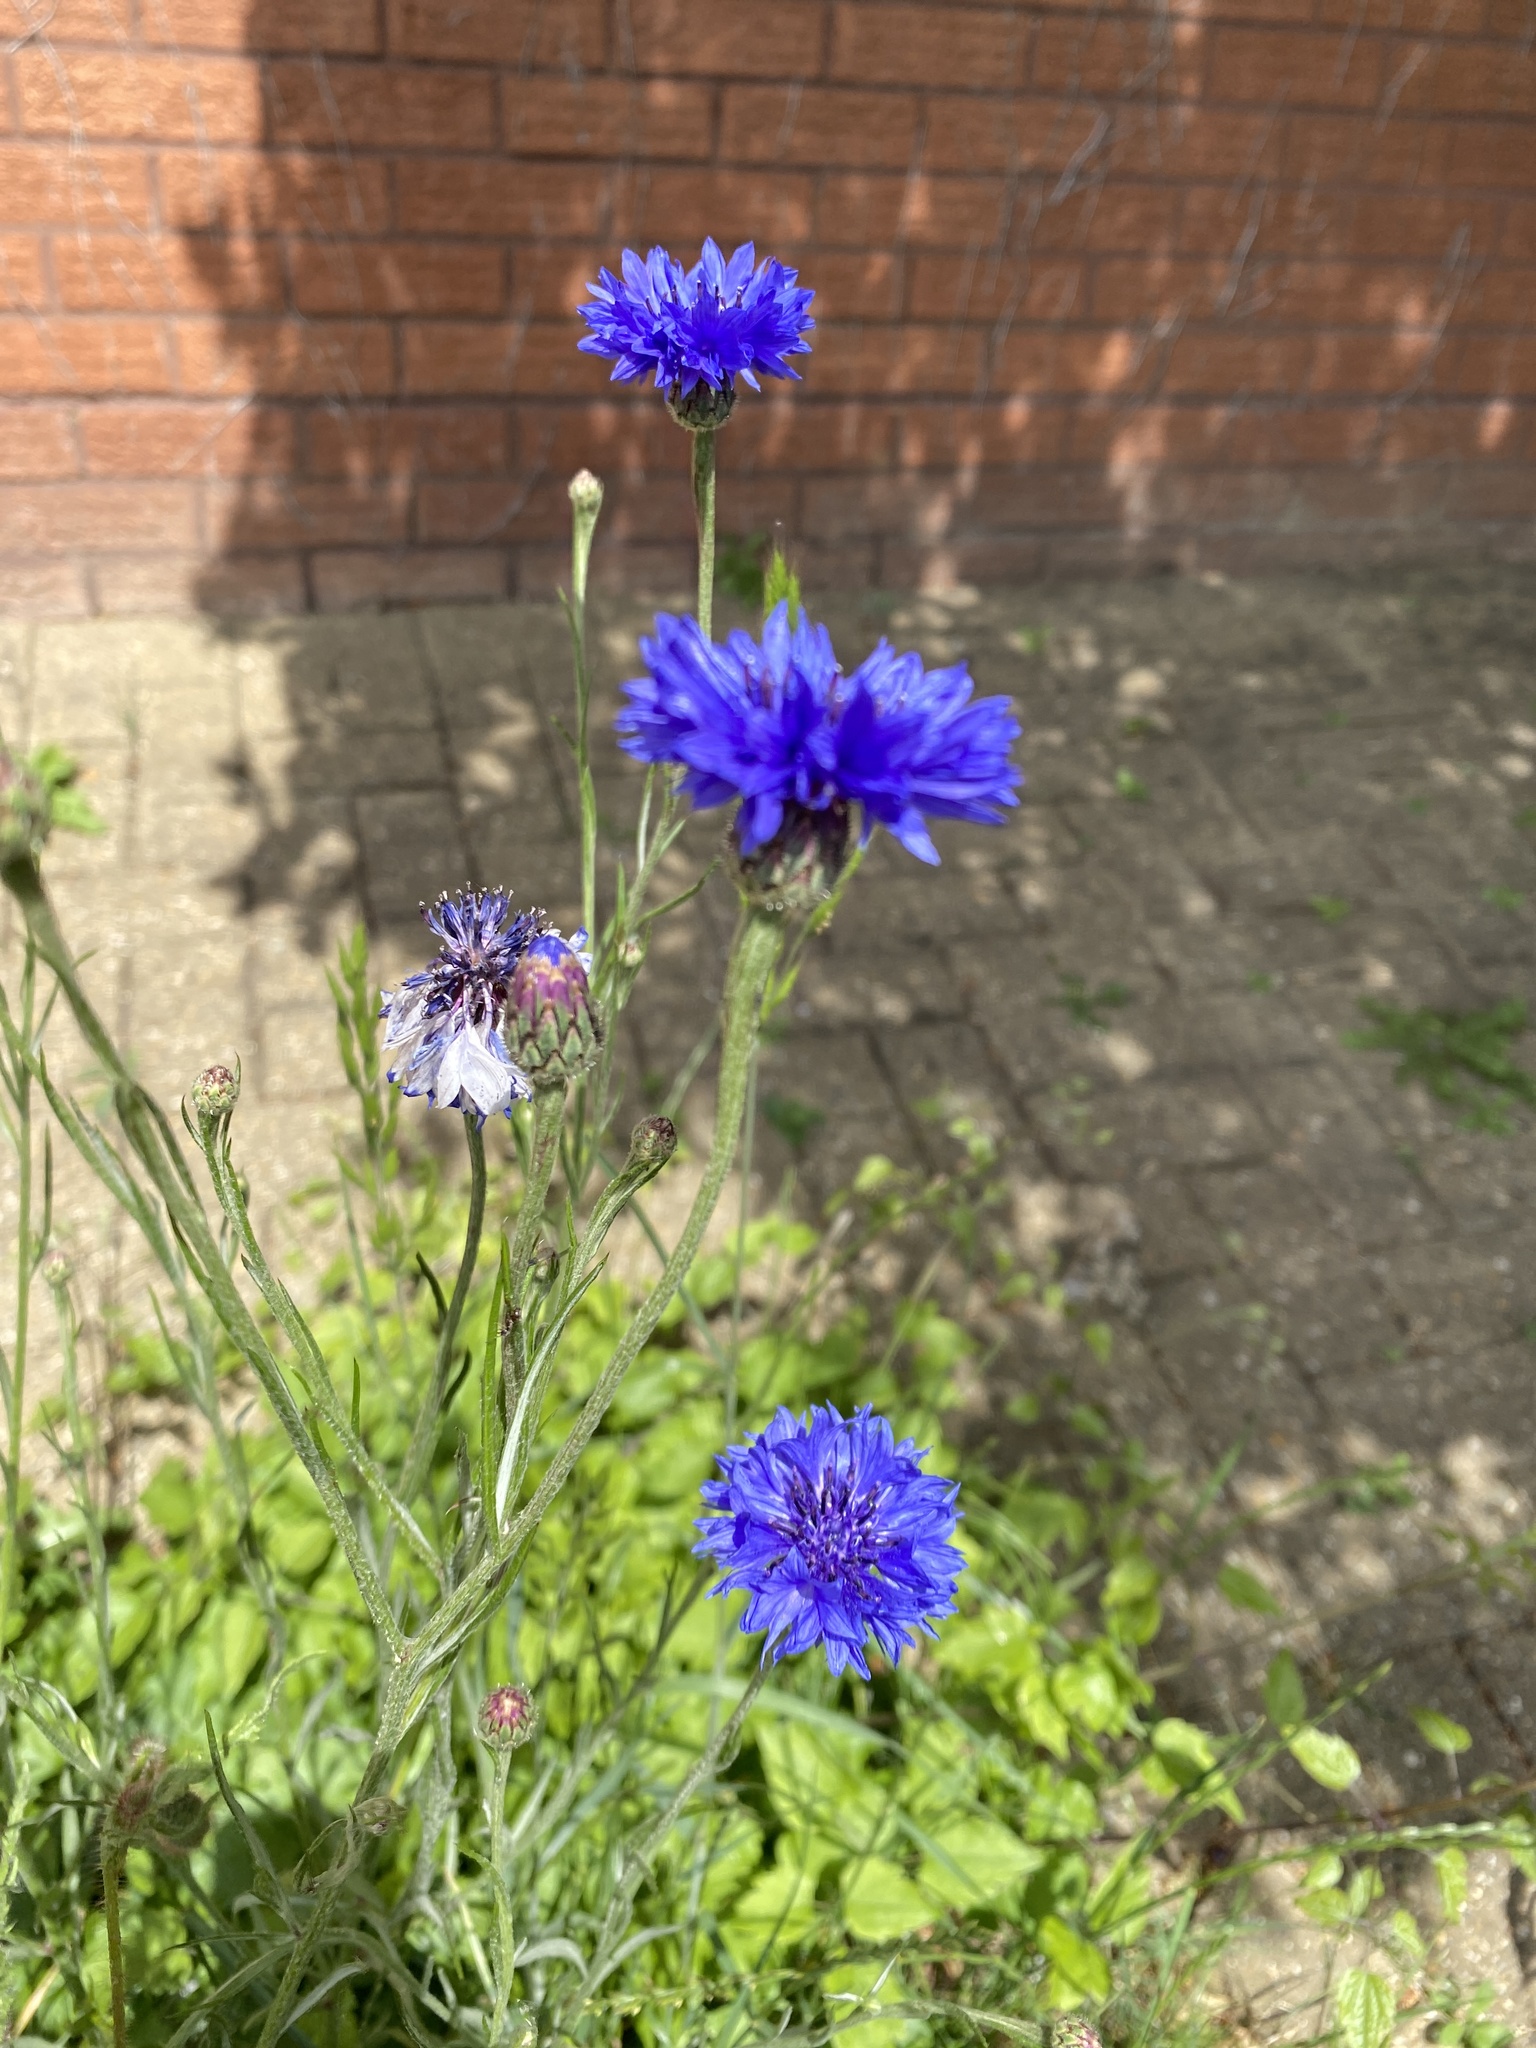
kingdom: Plantae
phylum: Tracheophyta
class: Magnoliopsida
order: Asterales
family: Asteraceae
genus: Centaurea
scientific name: Centaurea cyanus
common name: Cornflower
